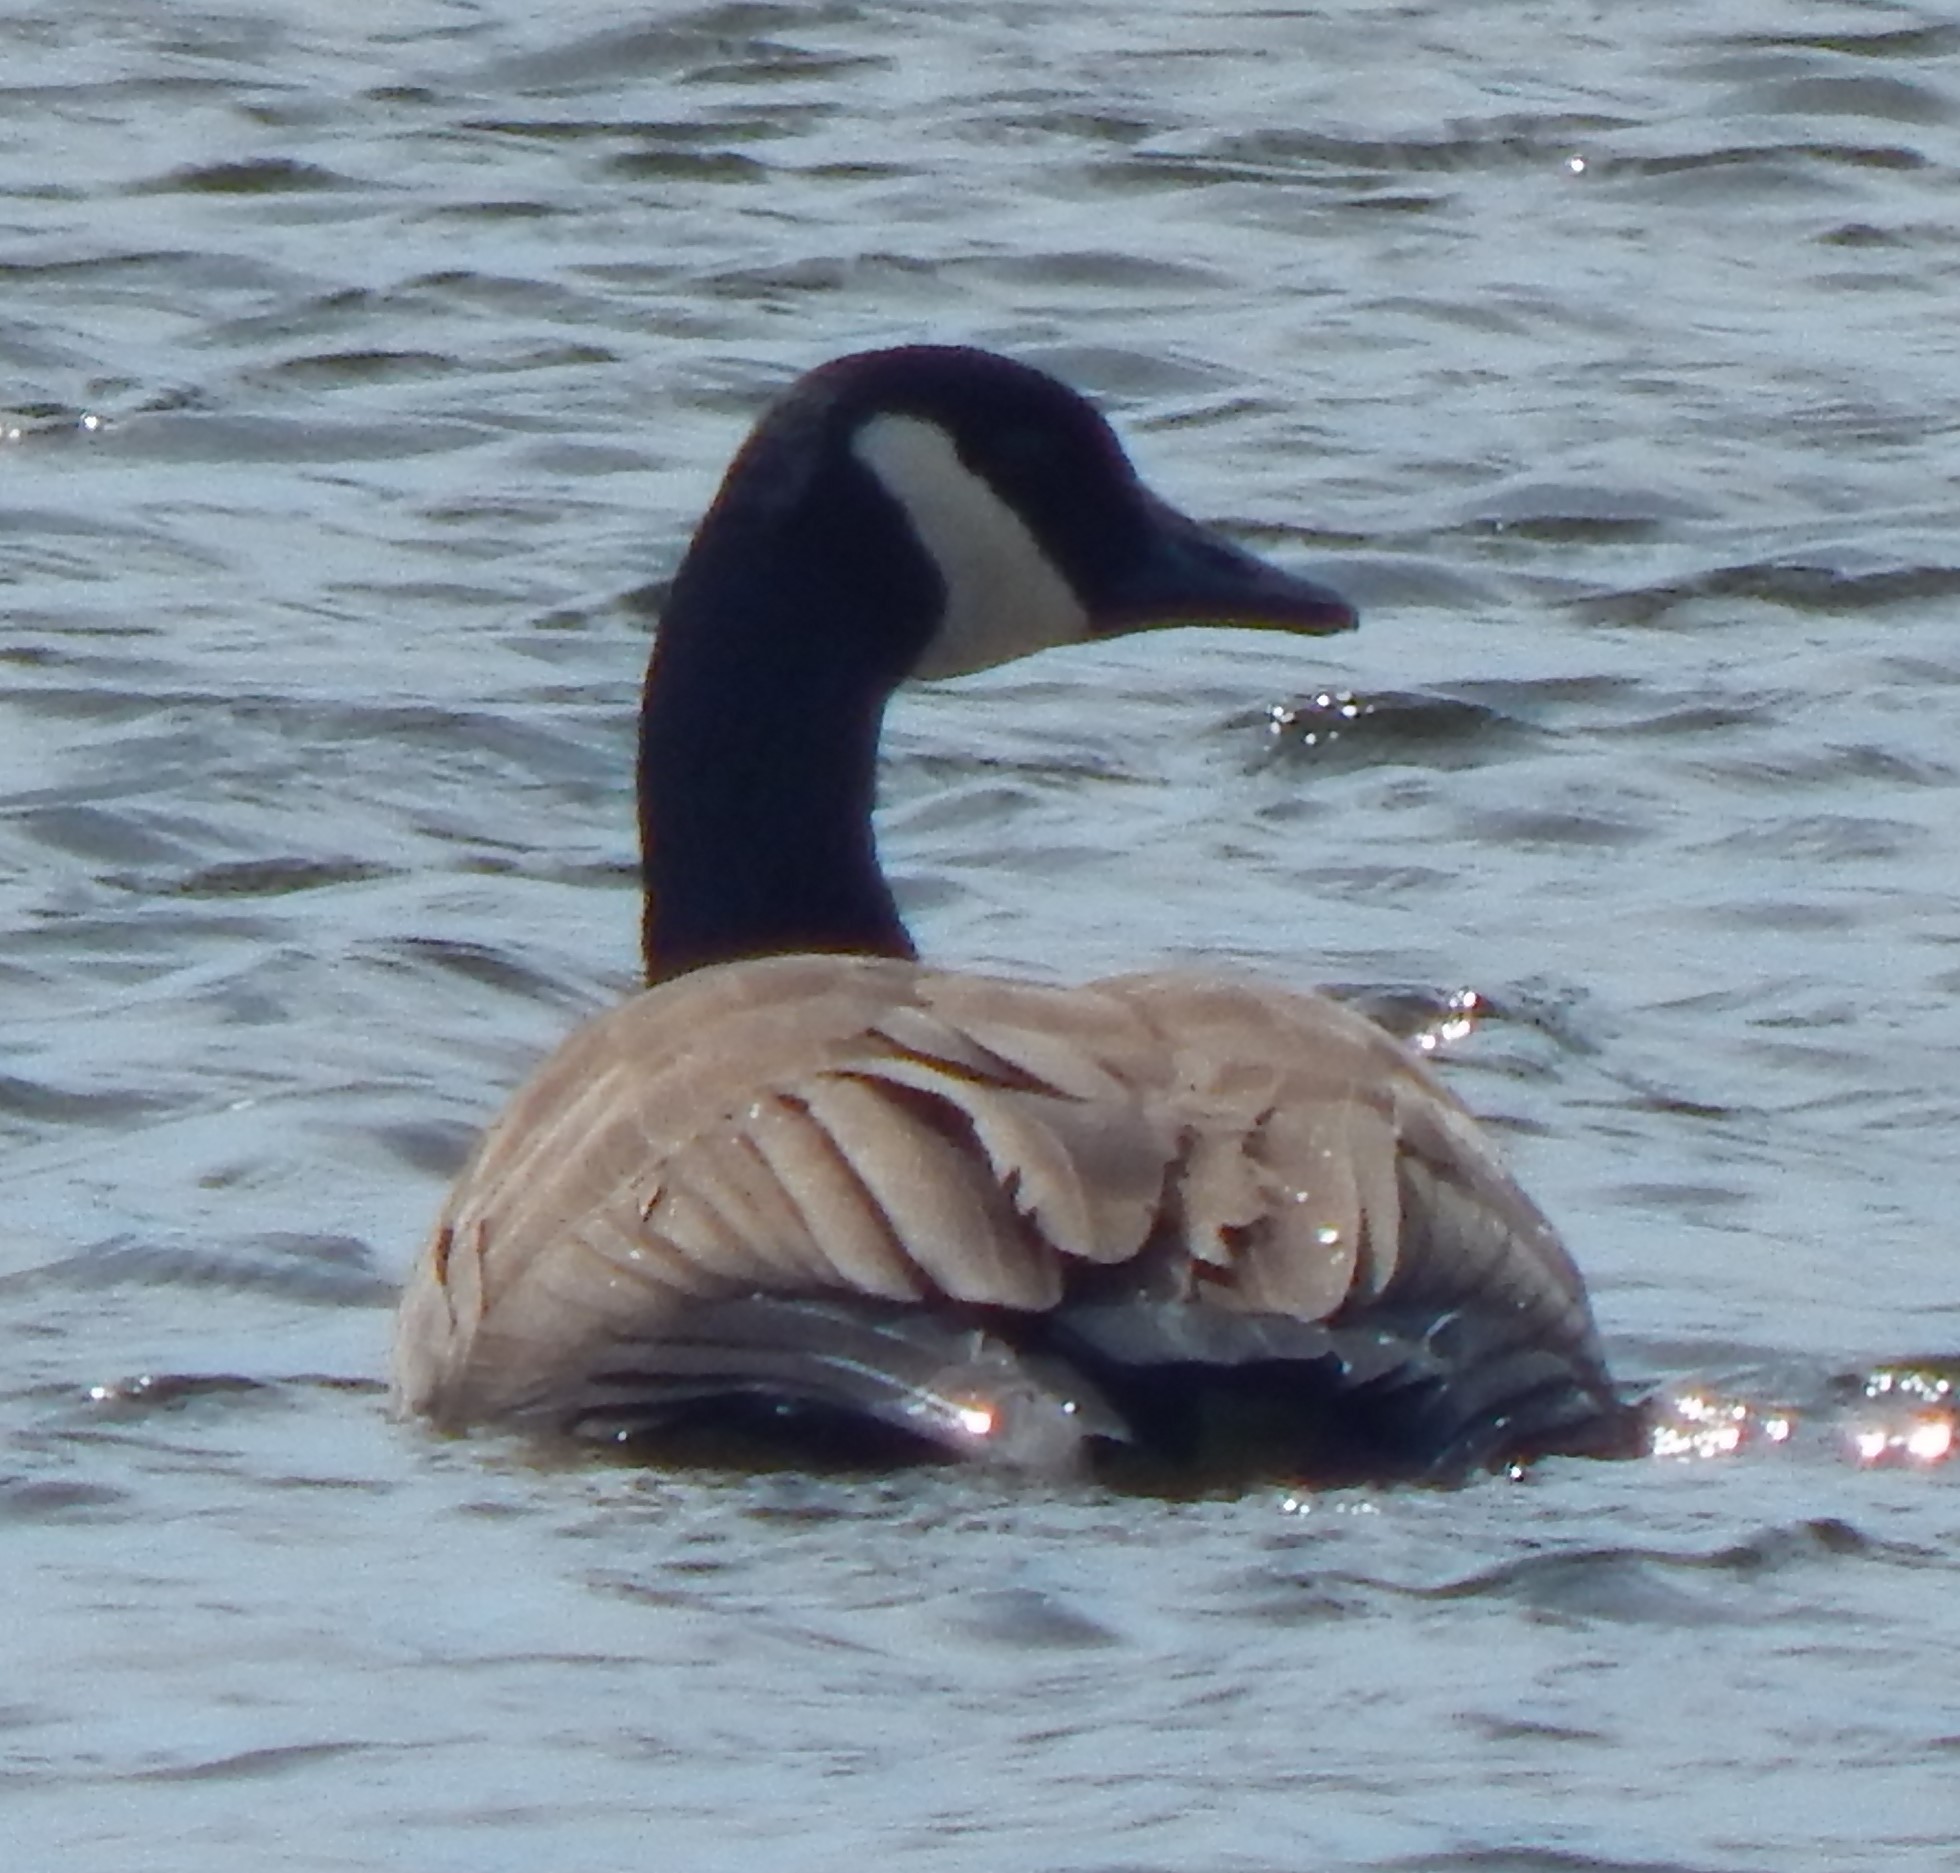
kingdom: Animalia
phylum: Chordata
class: Aves
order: Anseriformes
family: Anatidae
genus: Branta
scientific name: Branta canadensis
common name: Canada goose
